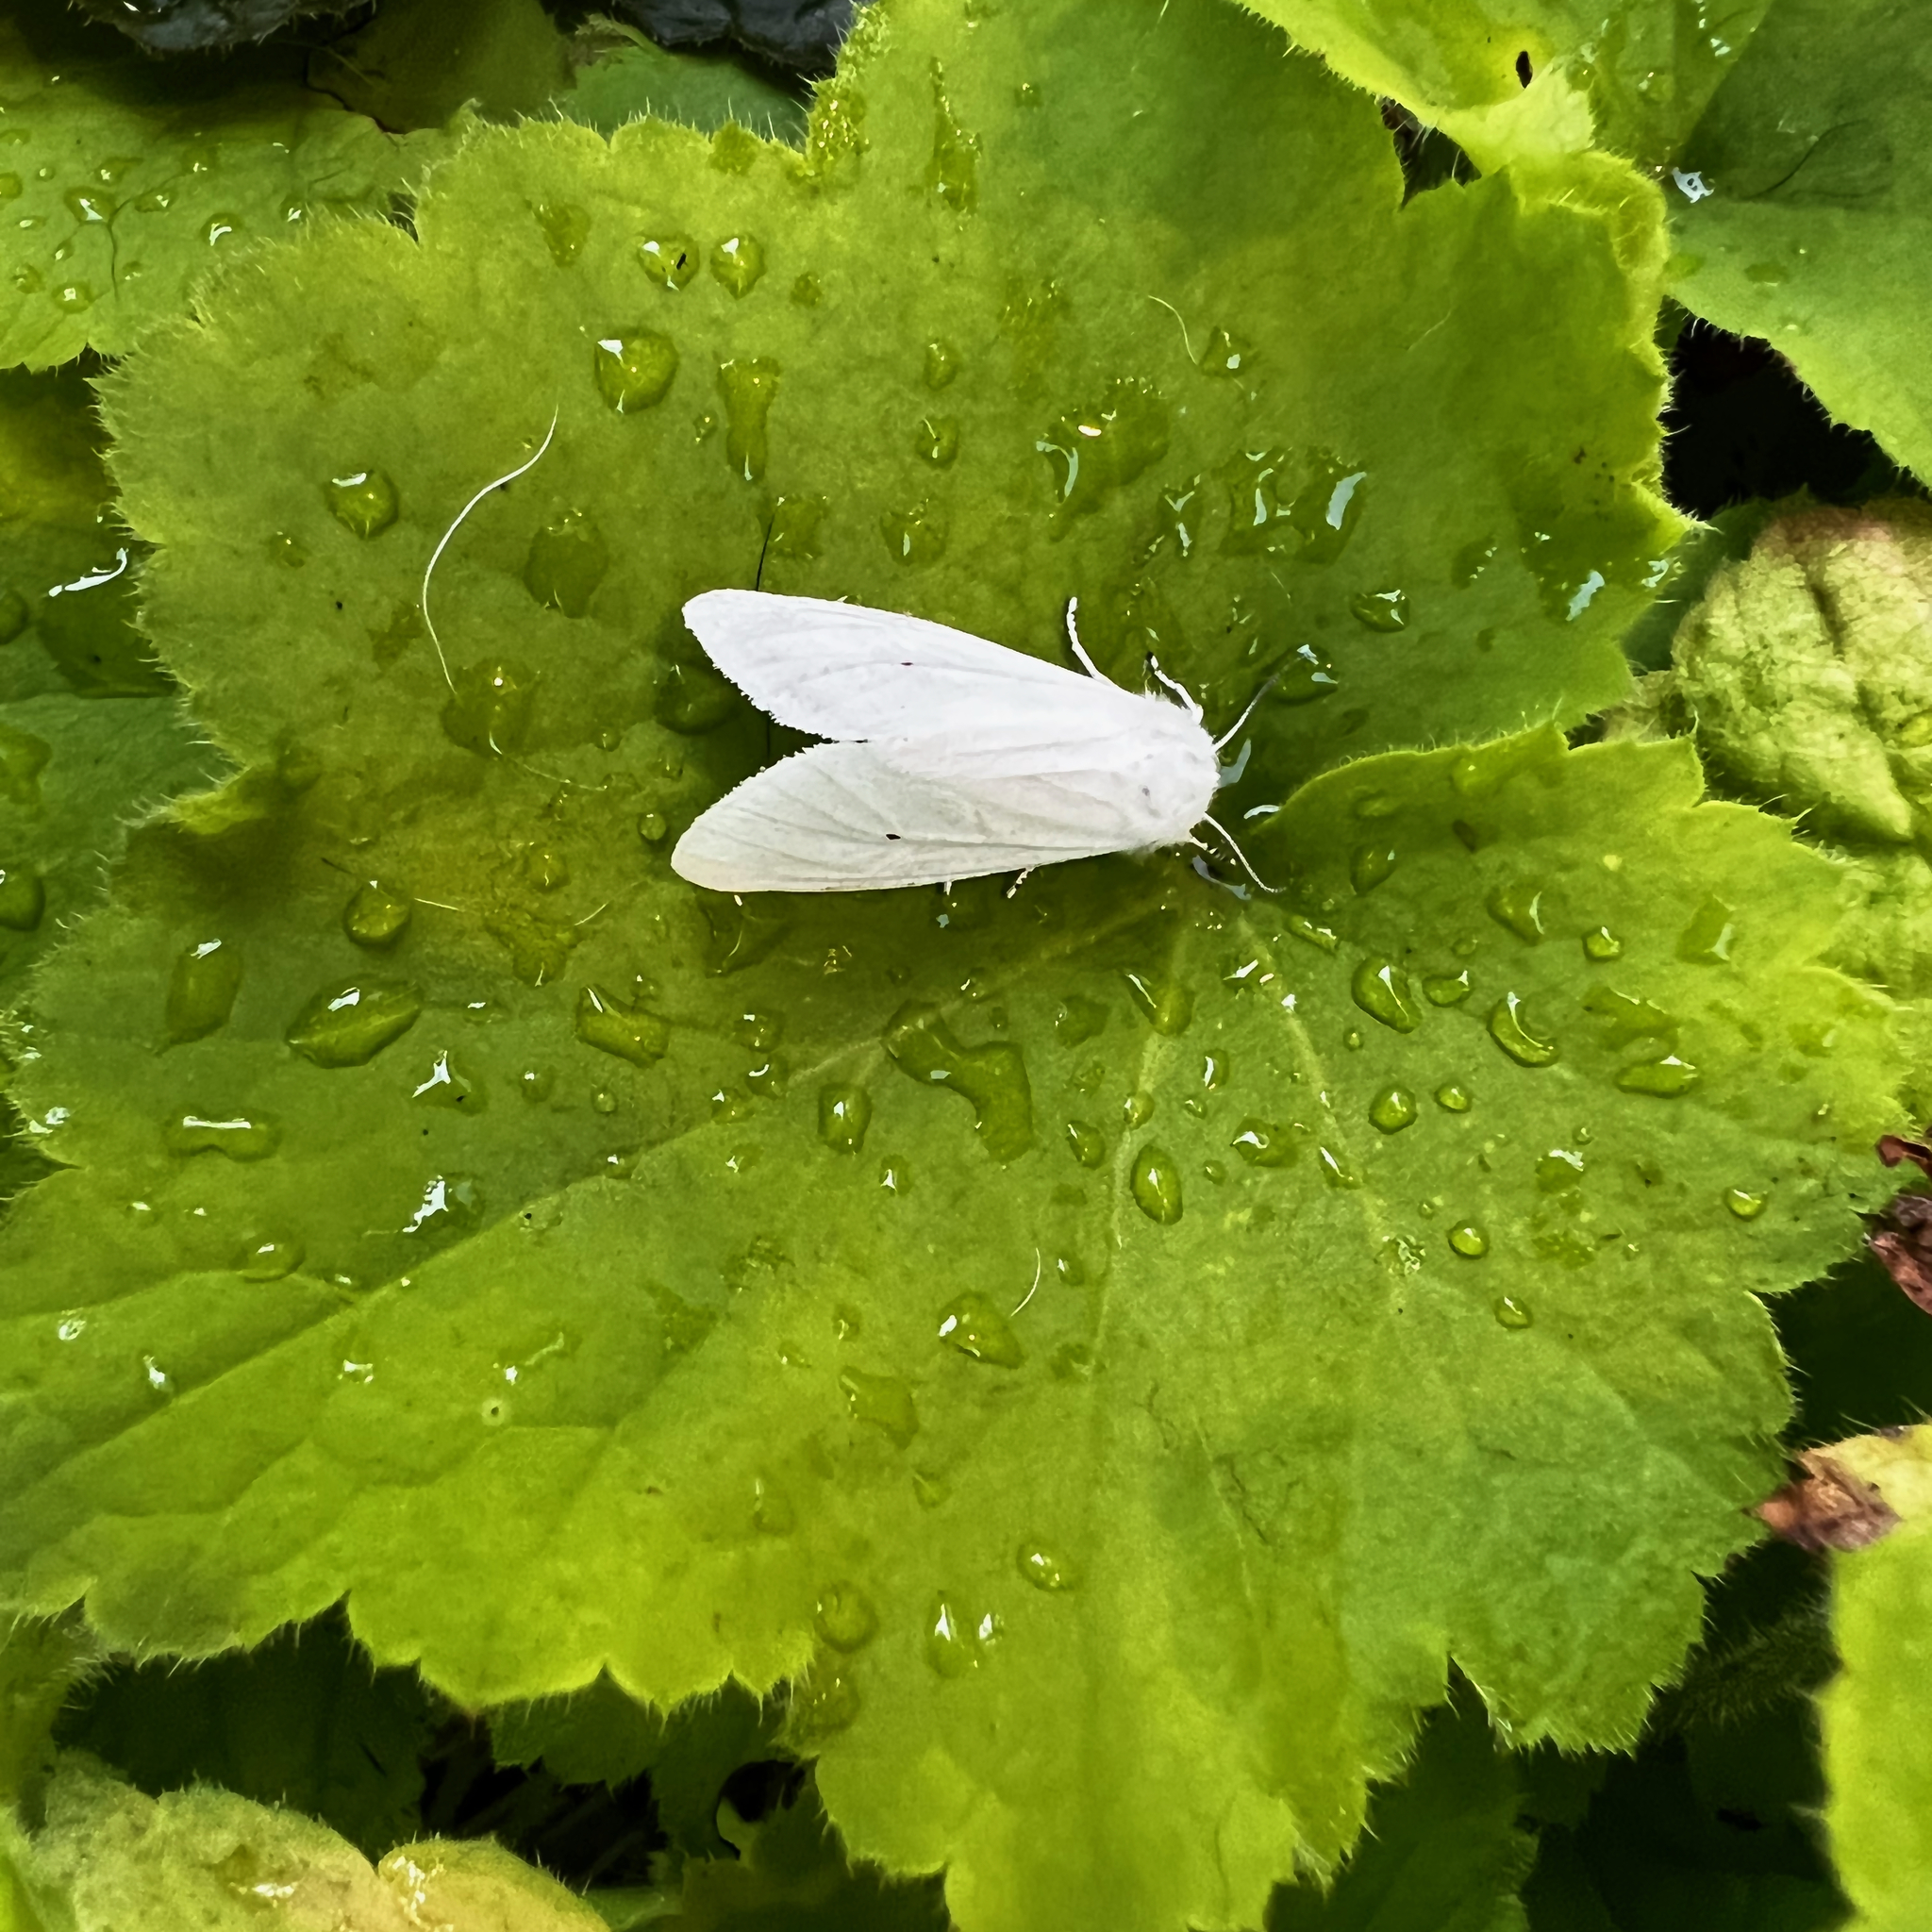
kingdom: Animalia
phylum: Arthropoda
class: Insecta
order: Lepidoptera
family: Erebidae
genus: Spilosoma
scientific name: Spilosoma virginica
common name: Virginia tiger moth
